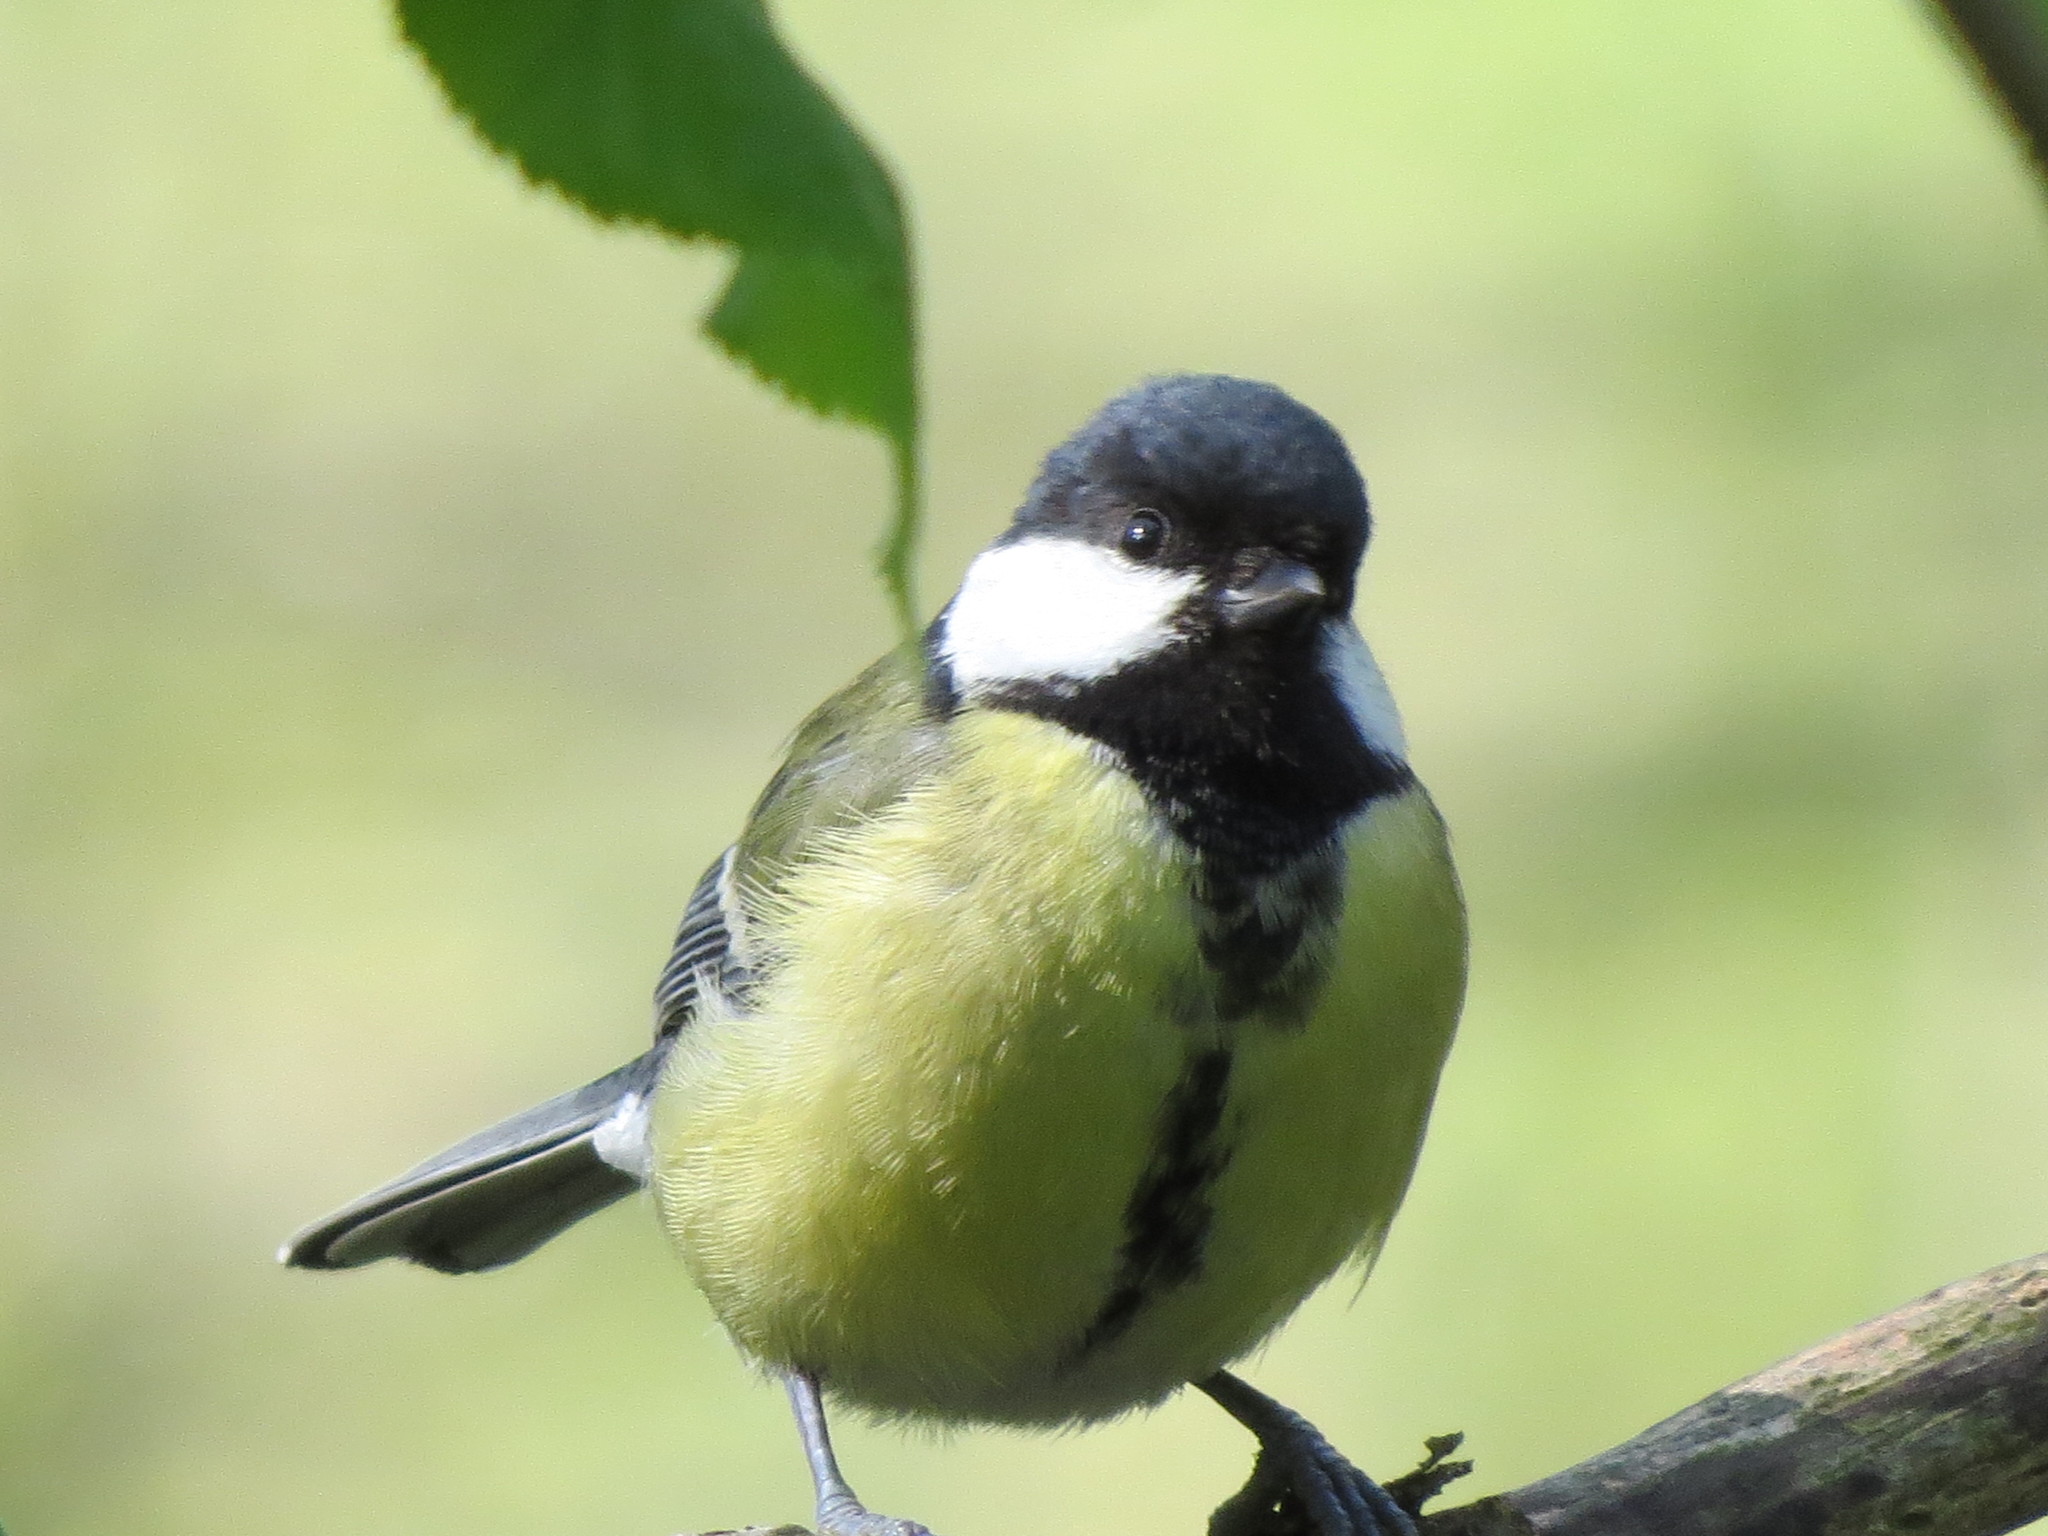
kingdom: Animalia
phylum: Chordata
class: Aves
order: Passeriformes
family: Paridae
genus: Parus
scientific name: Parus major
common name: Great tit
